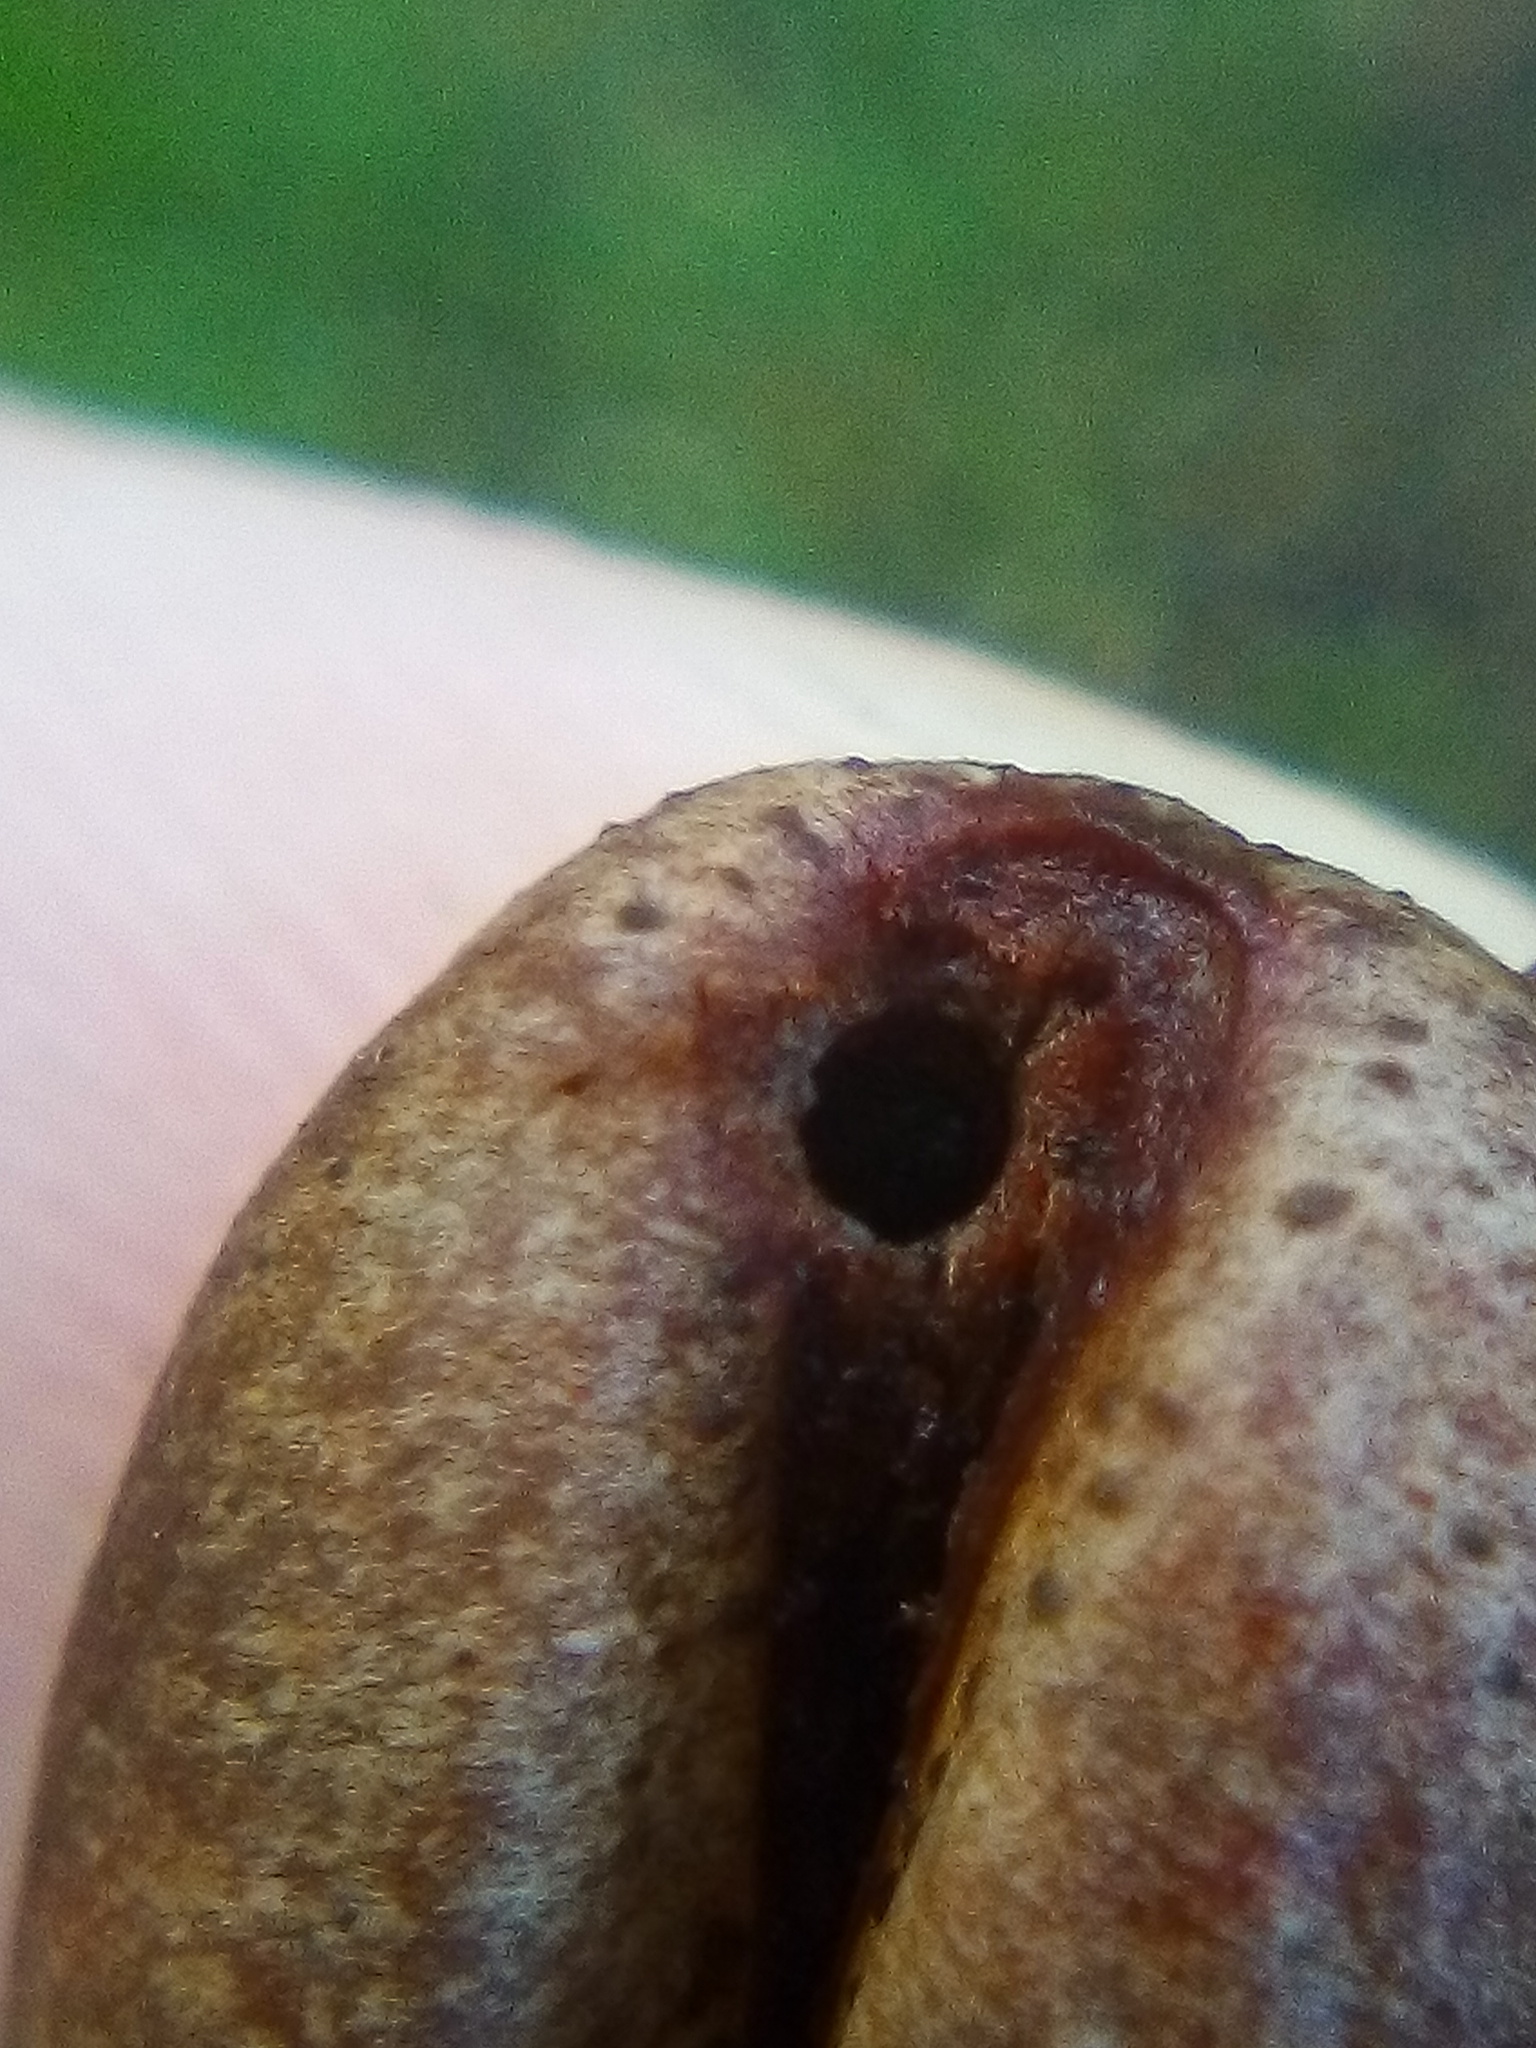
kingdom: Animalia
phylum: Arthropoda
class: Insecta
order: Coleoptera
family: Curculionidae
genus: Coccotrypes
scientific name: Coccotrypes dactyliperda
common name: Bark beetle
